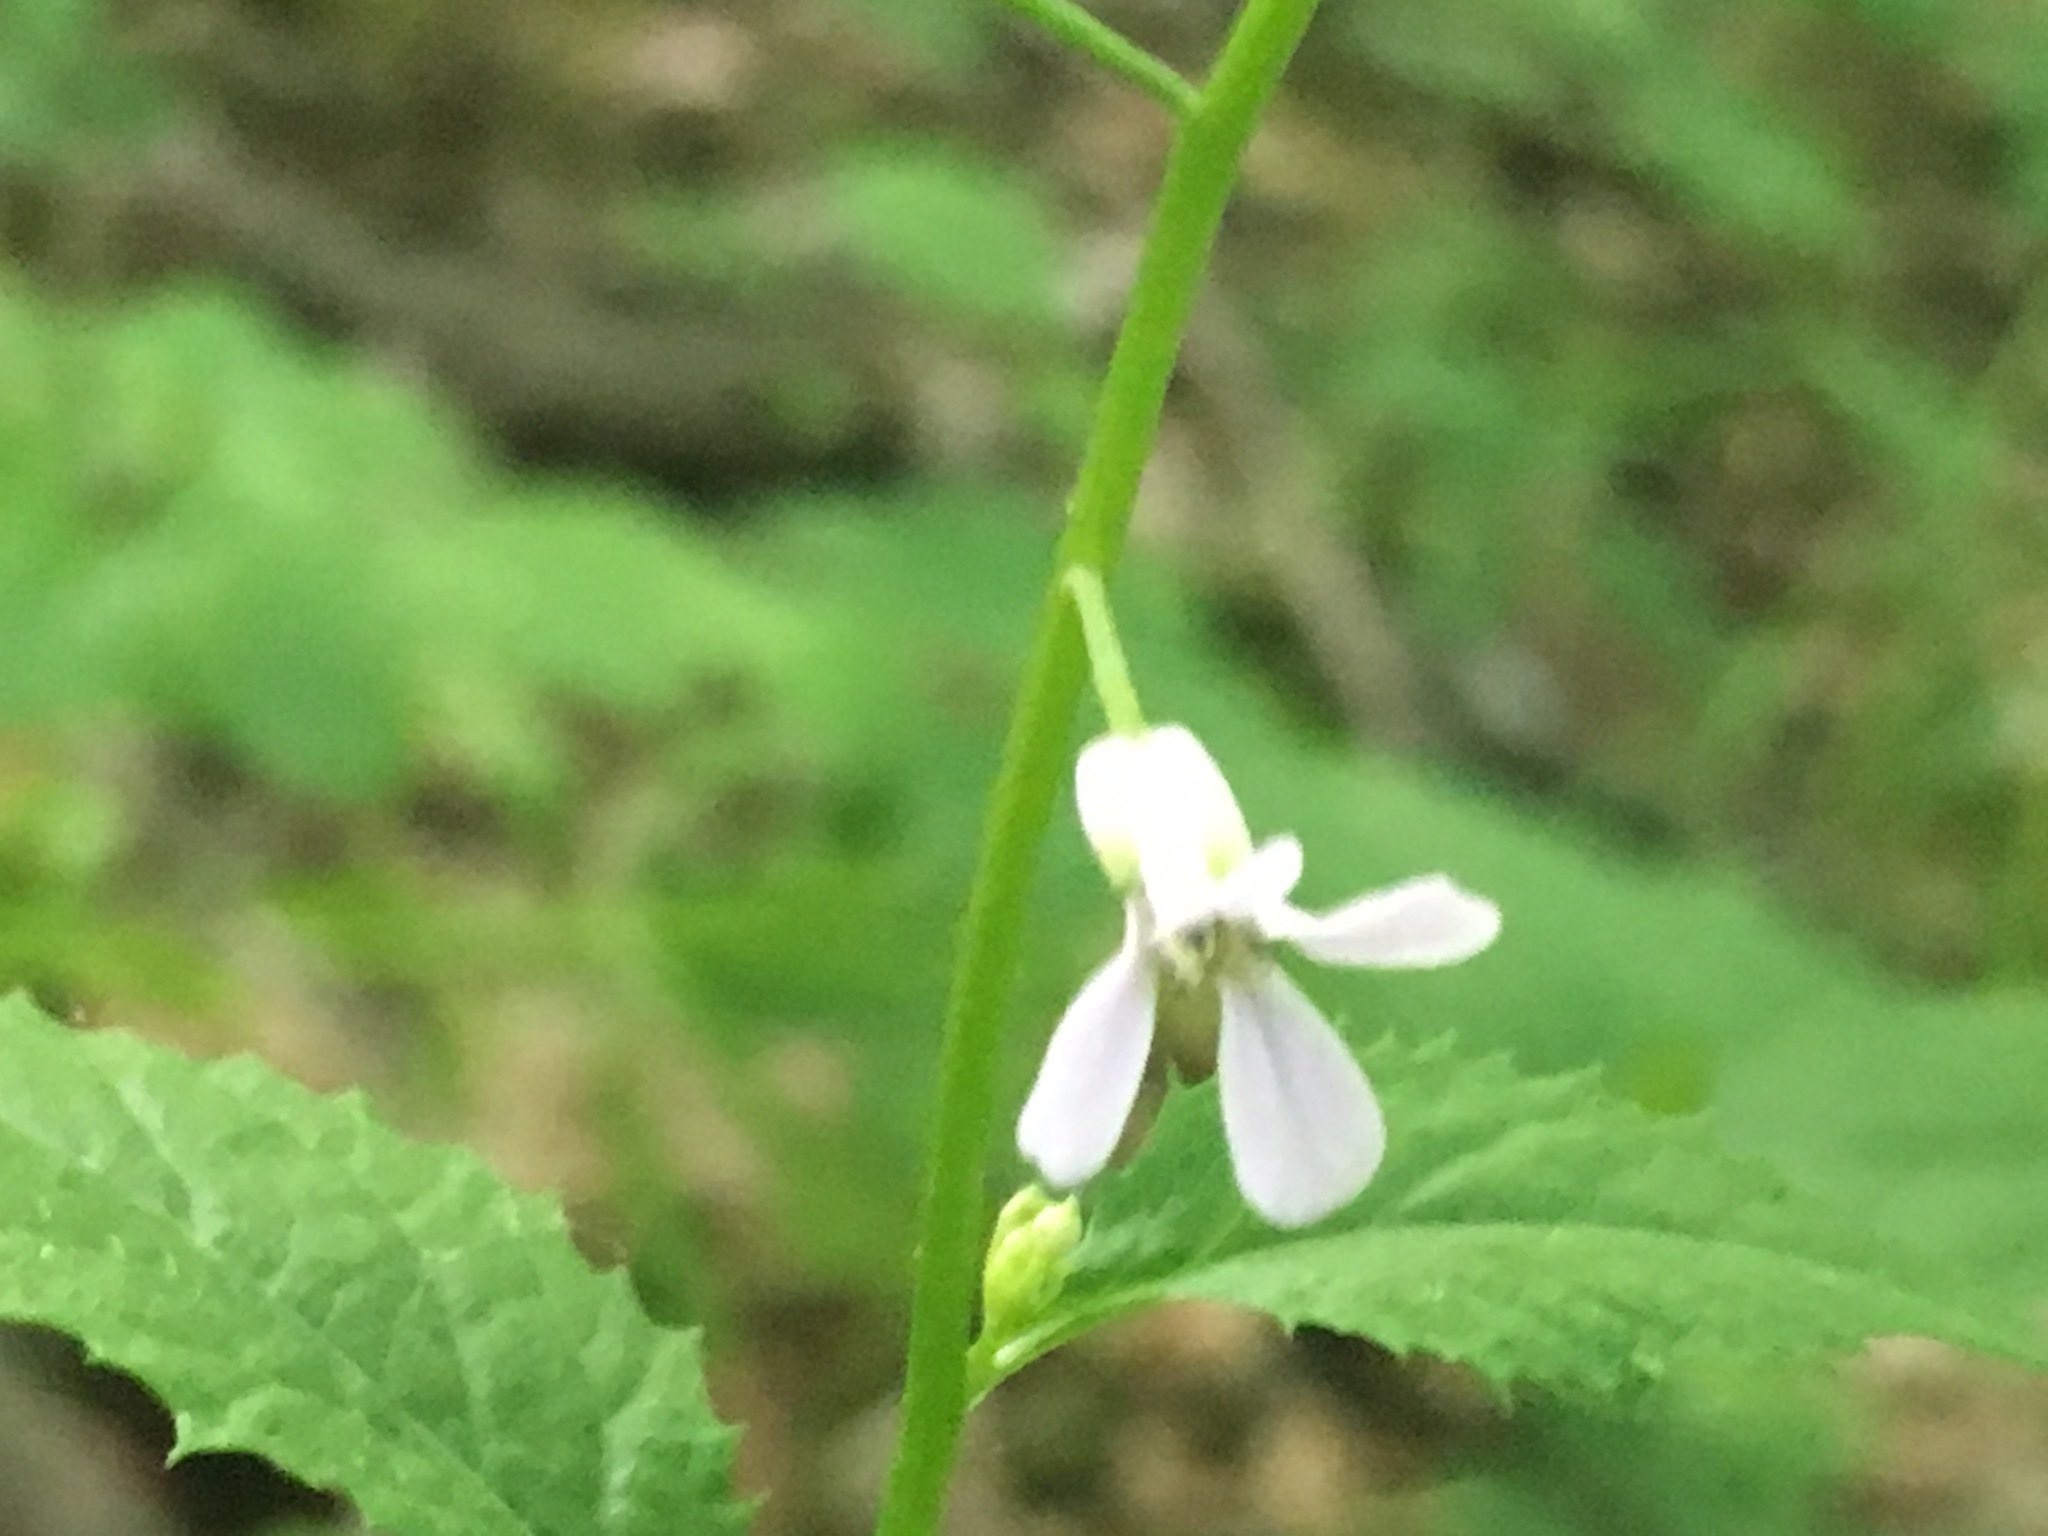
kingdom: Plantae
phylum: Tracheophyta
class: Magnoliopsida
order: Brassicales
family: Brassicaceae
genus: Iodanthus
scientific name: Iodanthus pinnatifidus
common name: Violet rocket
